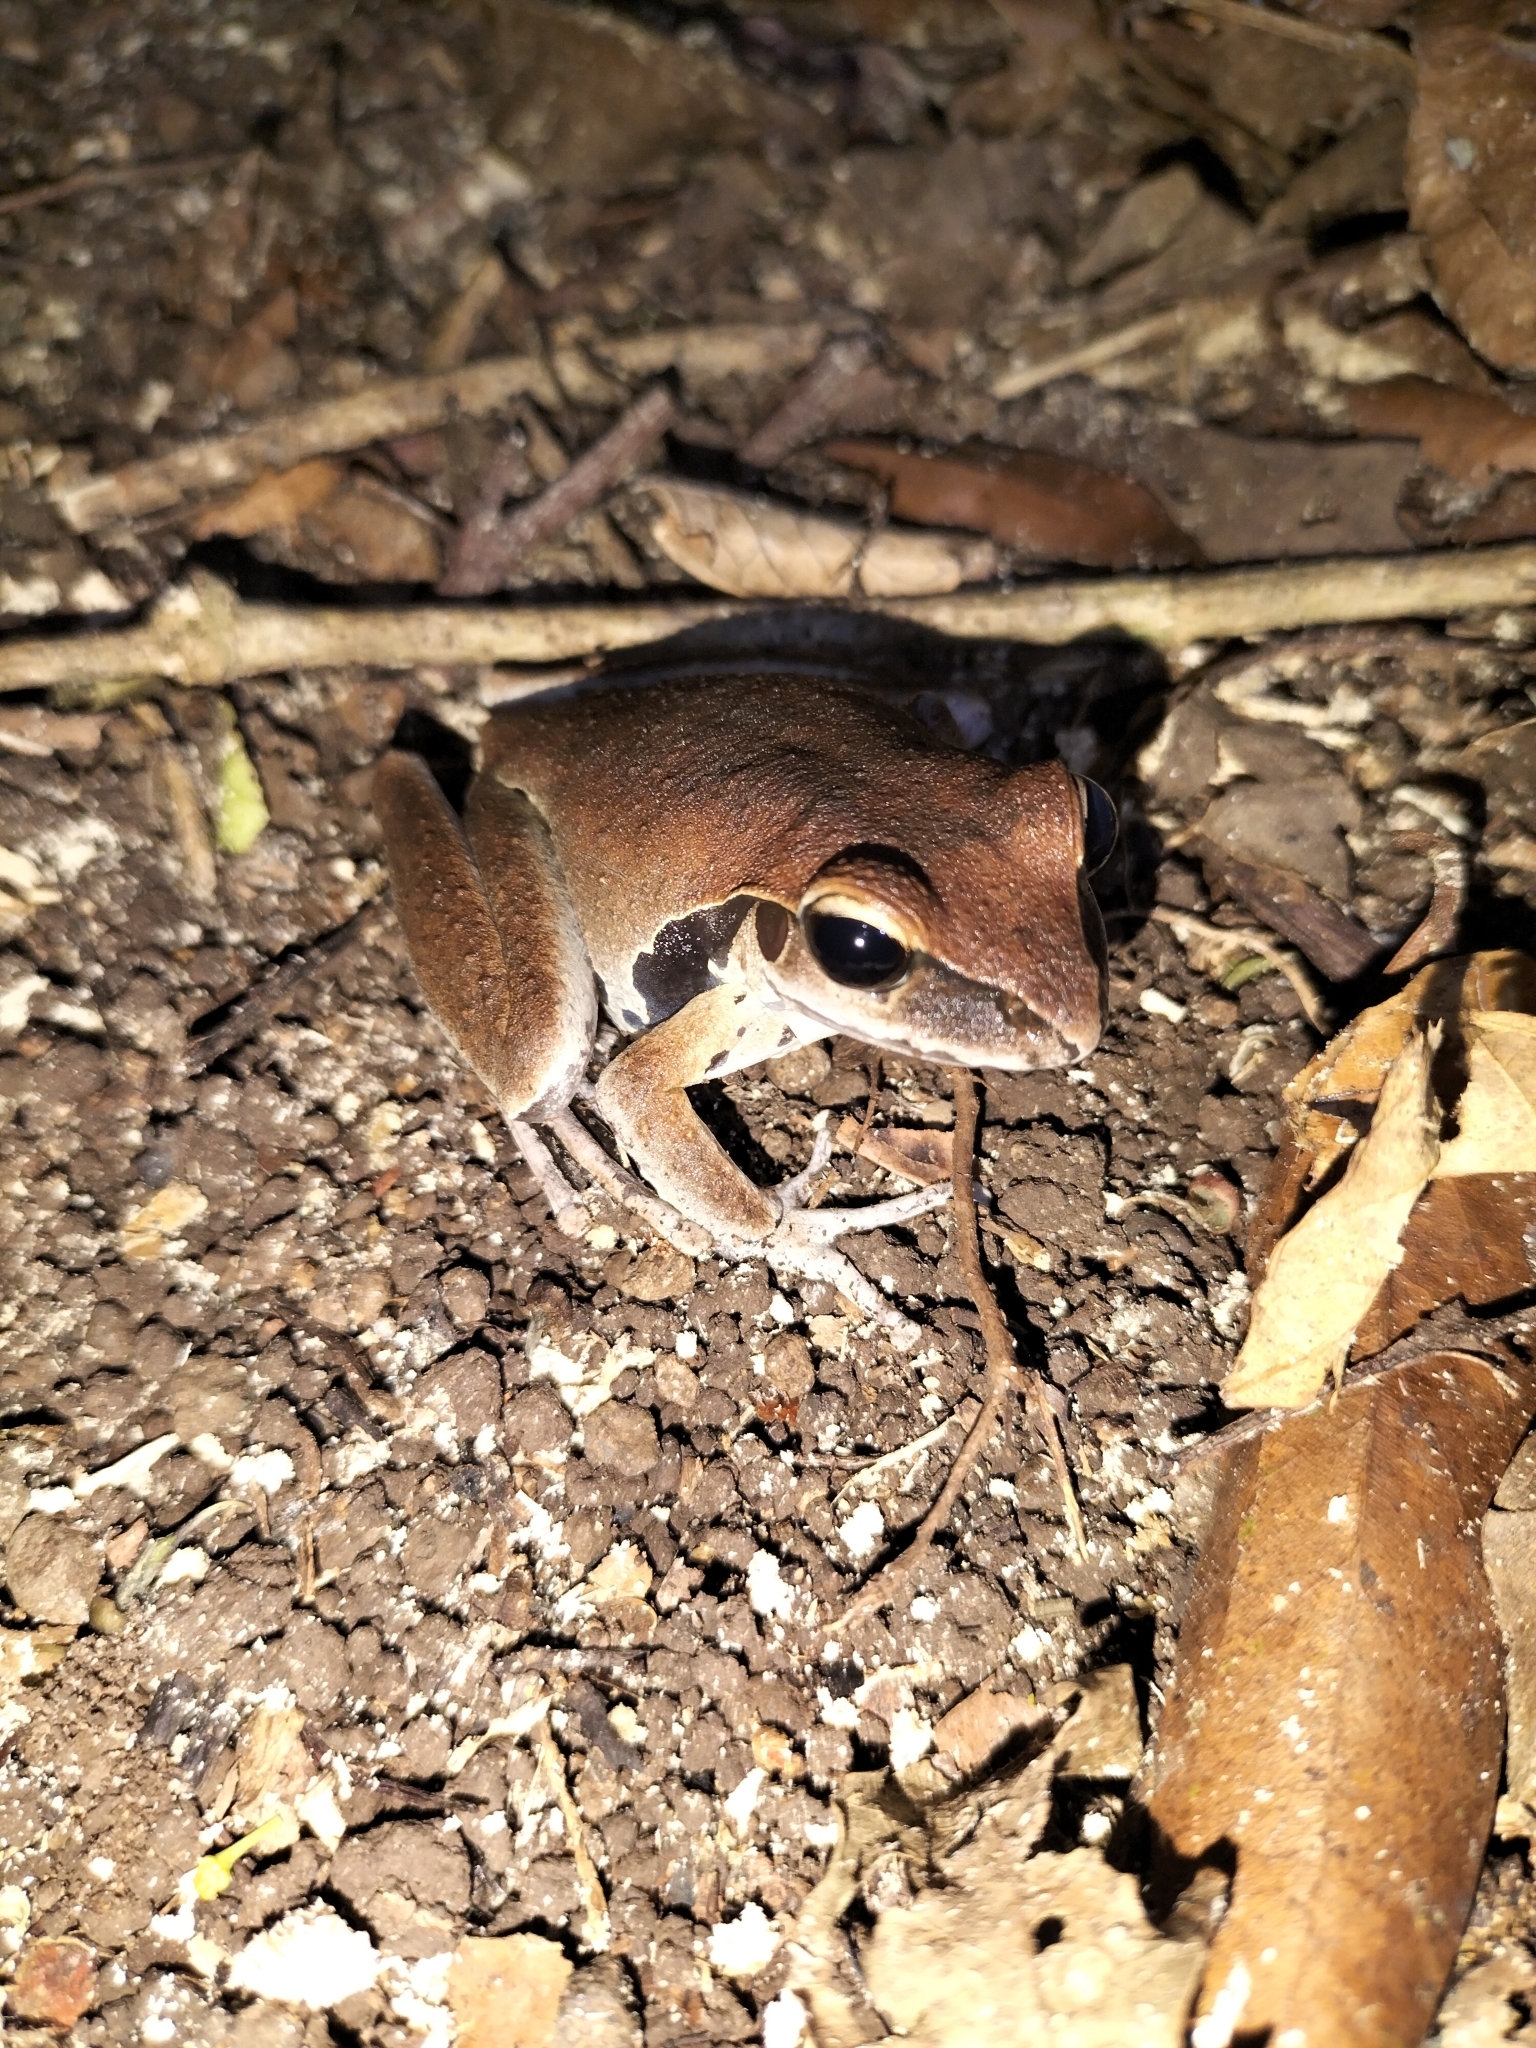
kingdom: Animalia
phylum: Chordata
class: Amphibia
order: Anura
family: Hylidae
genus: Ranoidea
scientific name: Ranoidea
